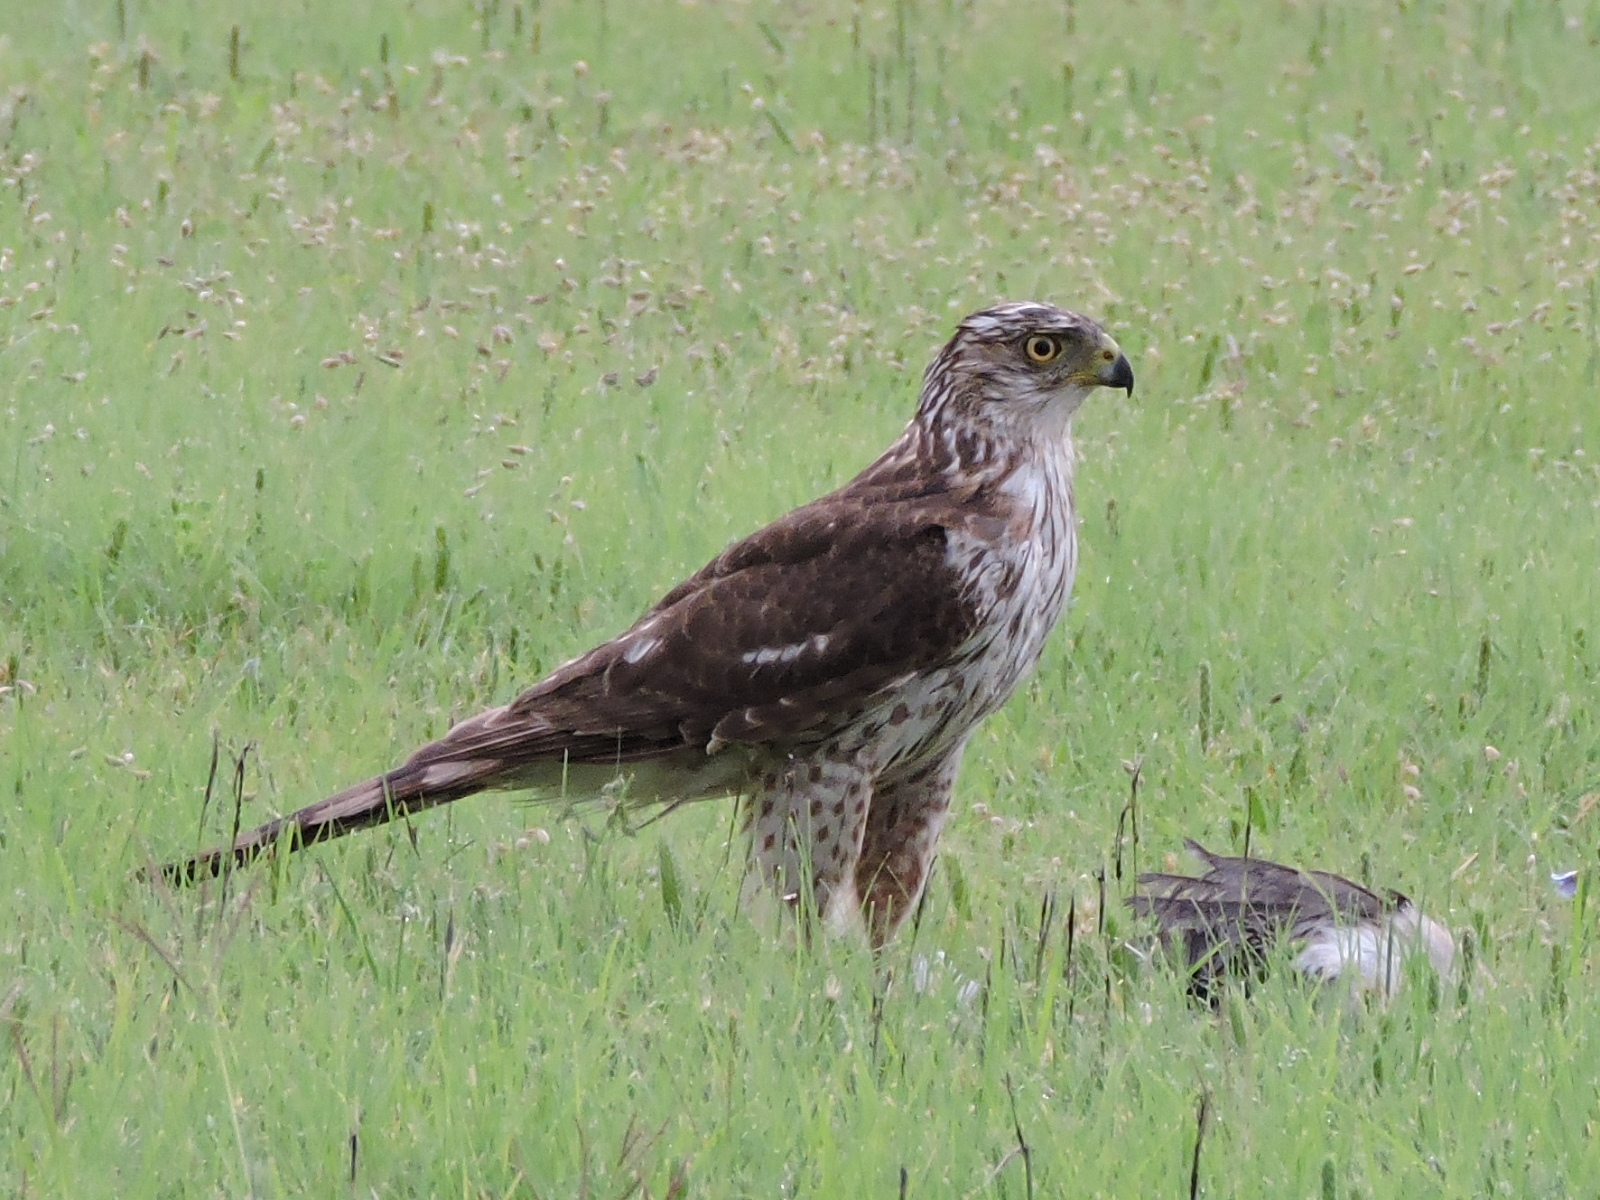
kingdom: Animalia
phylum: Chordata
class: Aves
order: Accipitriformes
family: Accipitridae
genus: Accipiter
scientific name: Accipiter cooperii
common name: Cooper's hawk
